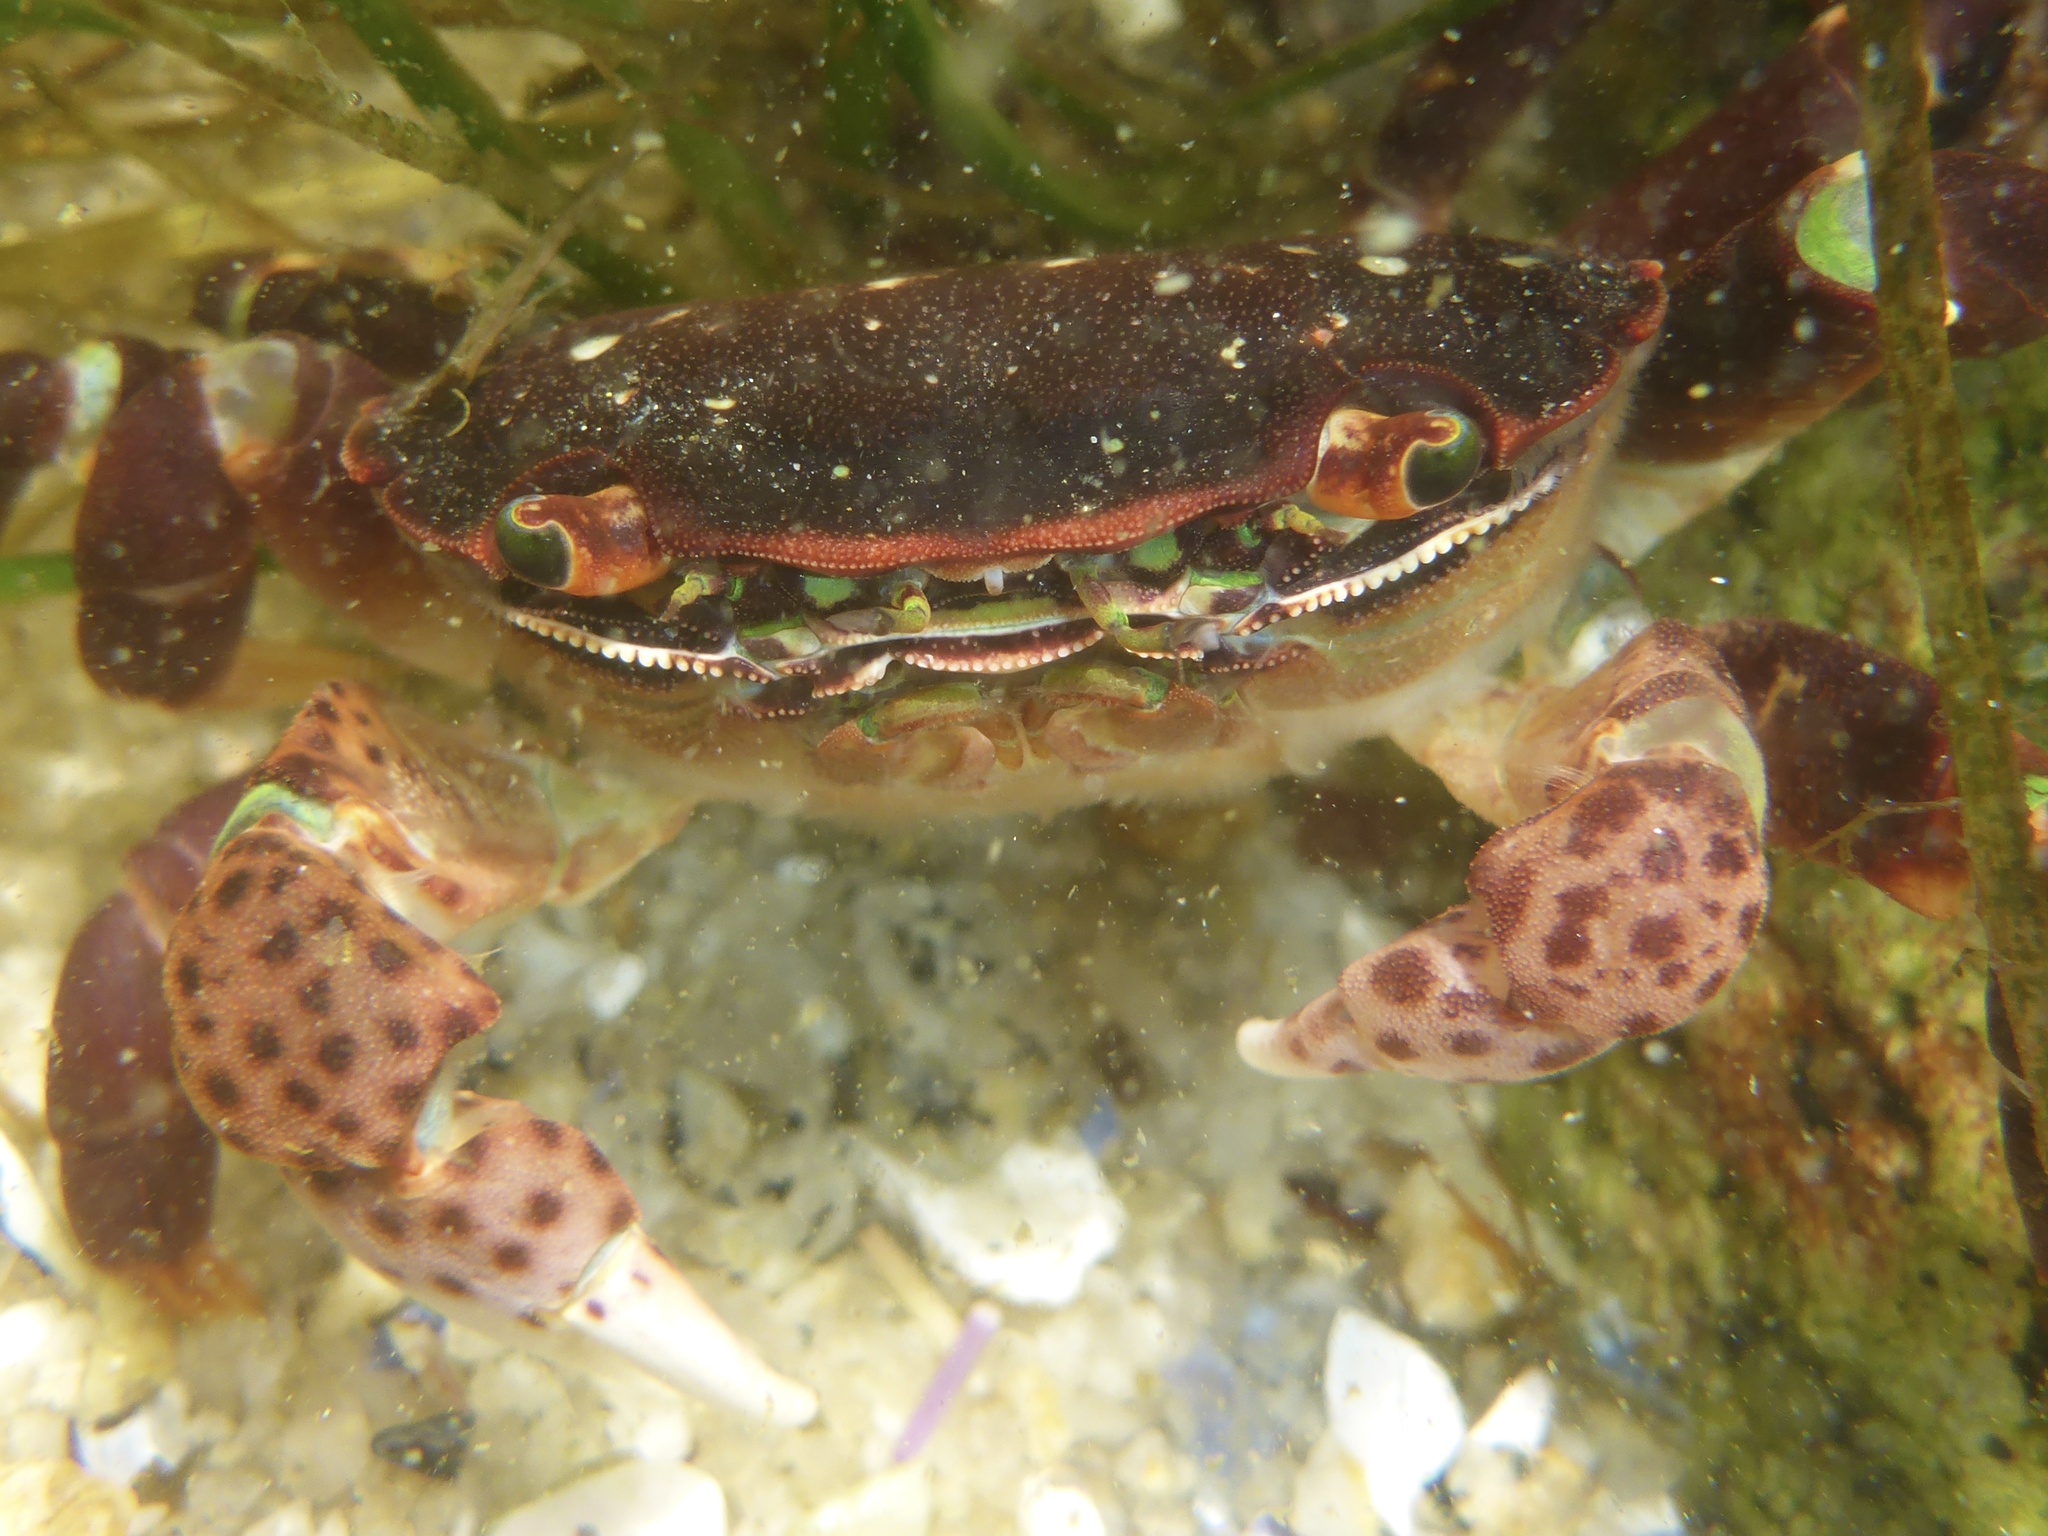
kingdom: Animalia
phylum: Arthropoda
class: Malacostraca
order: Decapoda
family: Varunidae
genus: Hemigrapsus
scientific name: Hemigrapsus nudus
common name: Purple shore crab
